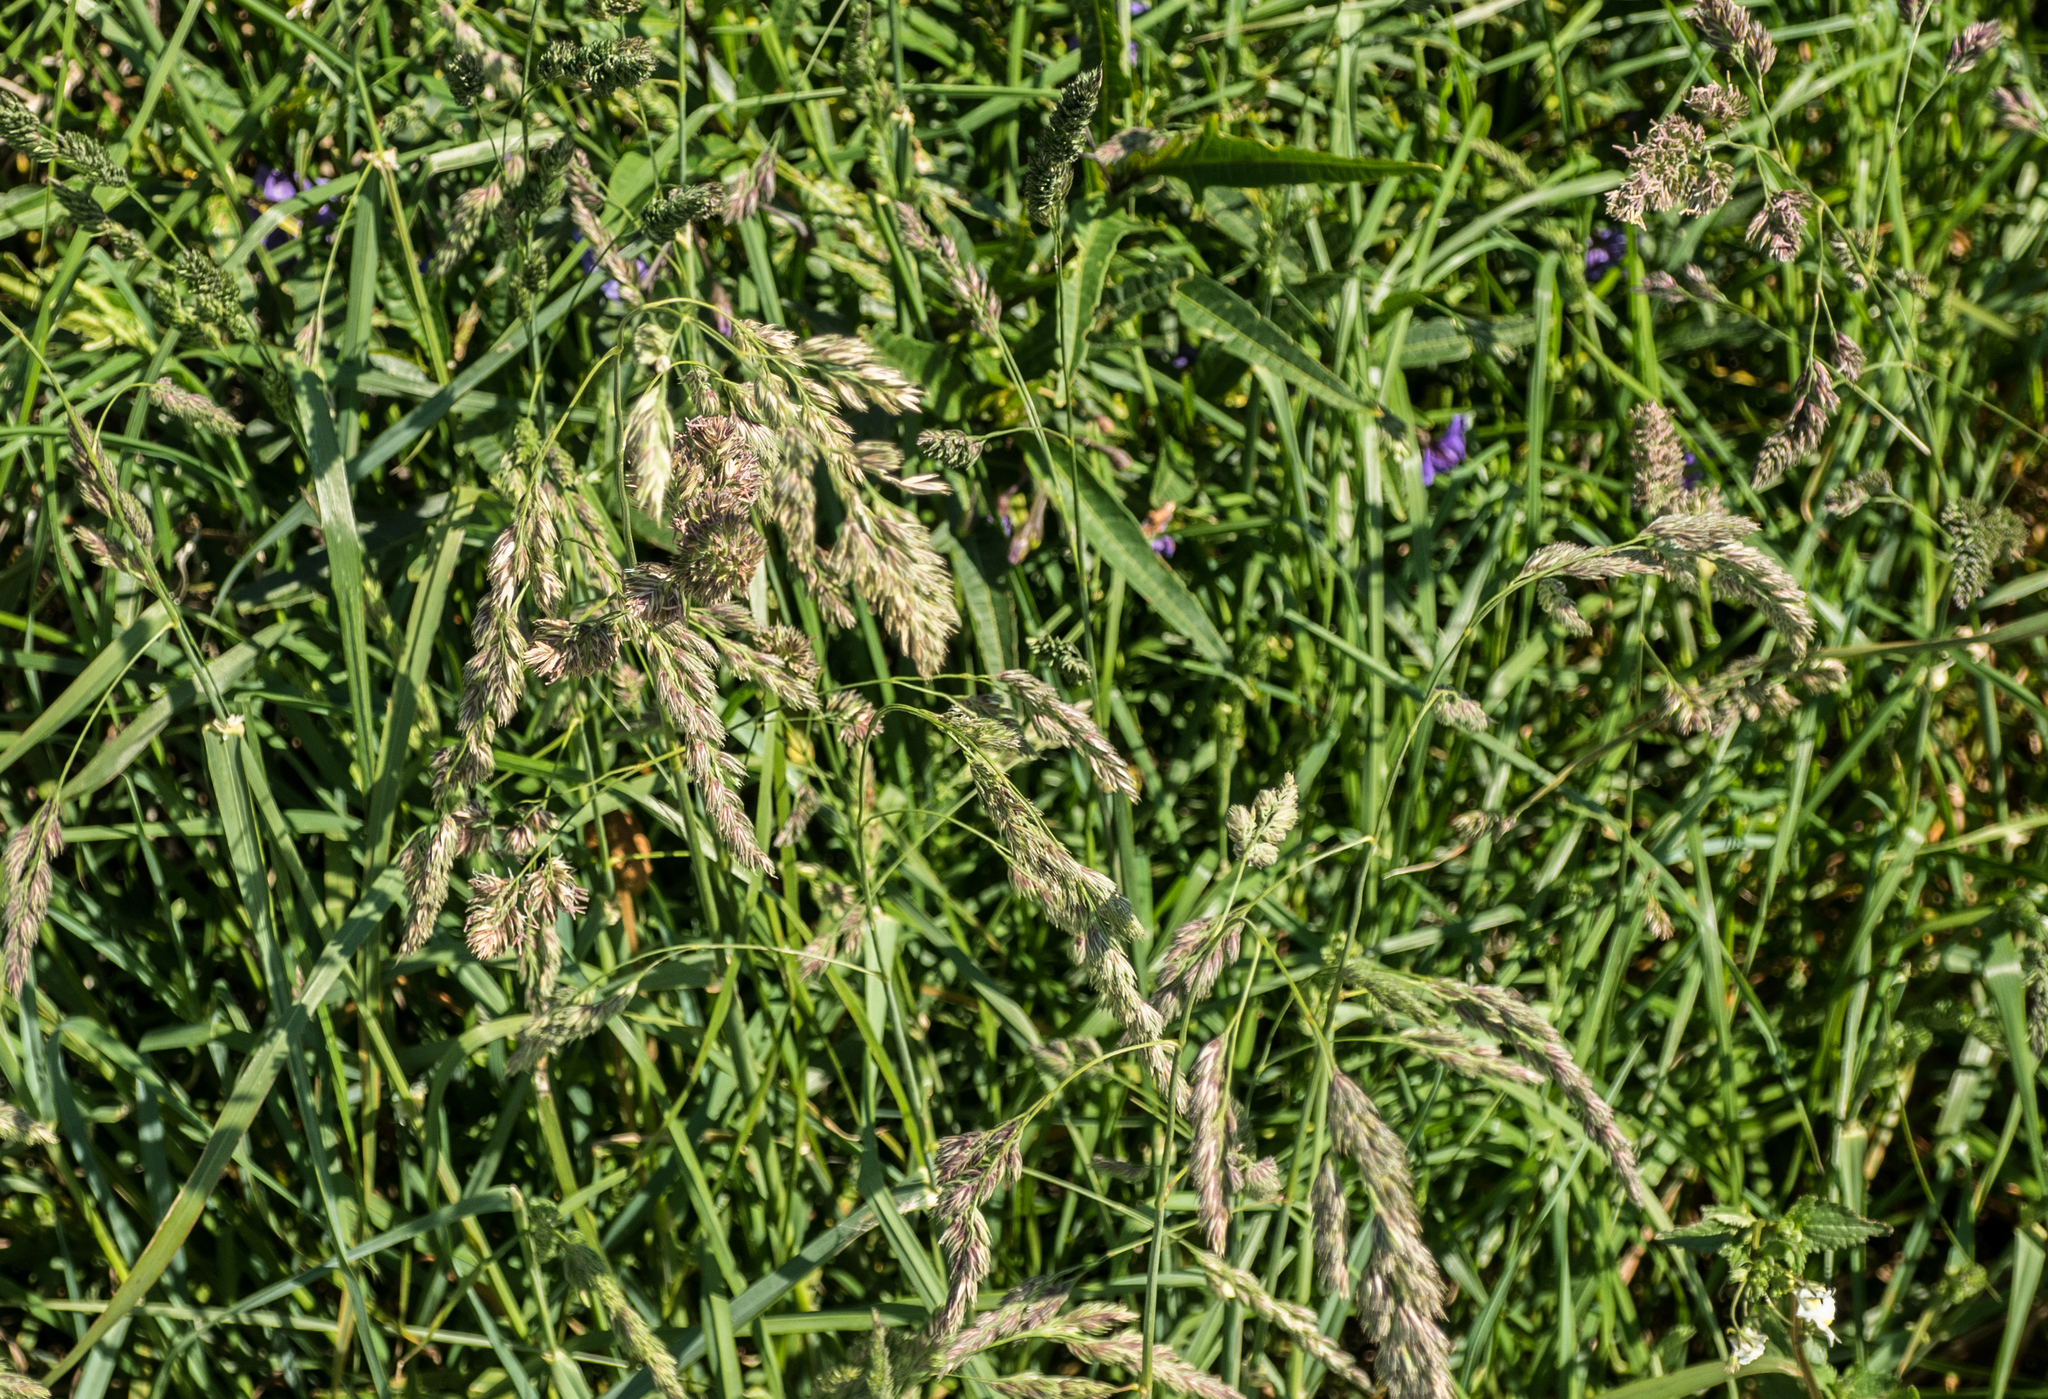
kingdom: Plantae
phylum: Tracheophyta
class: Liliopsida
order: Poales
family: Poaceae
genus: Dactylis
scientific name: Dactylis glomerata
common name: Orchardgrass
